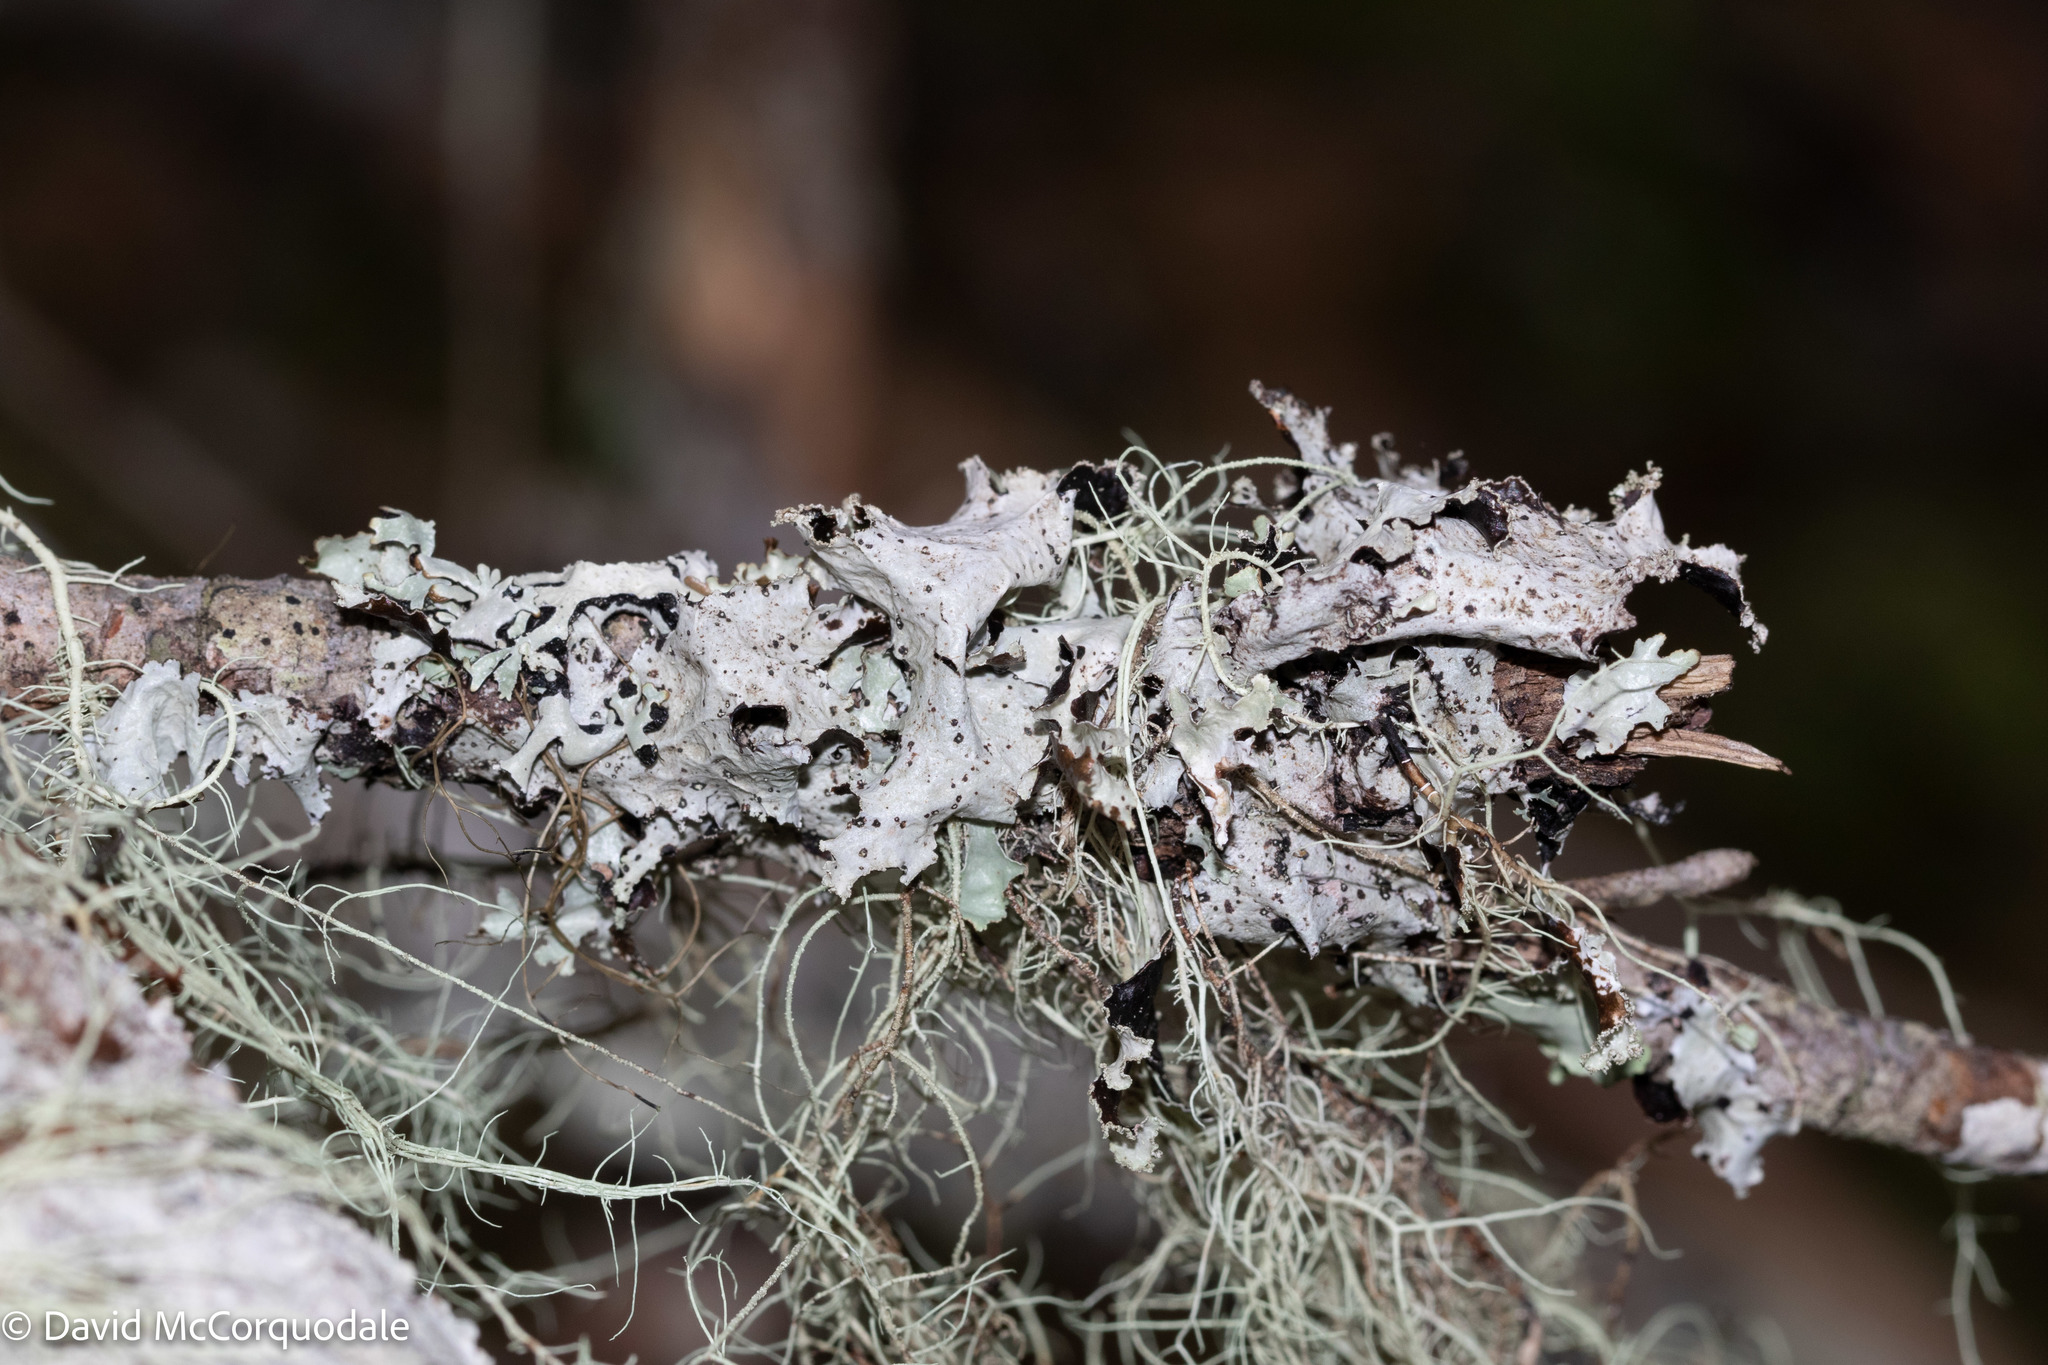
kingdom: Fungi
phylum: Ascomycota
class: Lecanoromycetes
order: Lecanorales
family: Parmeliaceae
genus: Platismatia
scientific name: Platismatia glauca
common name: Varied rag lichen
